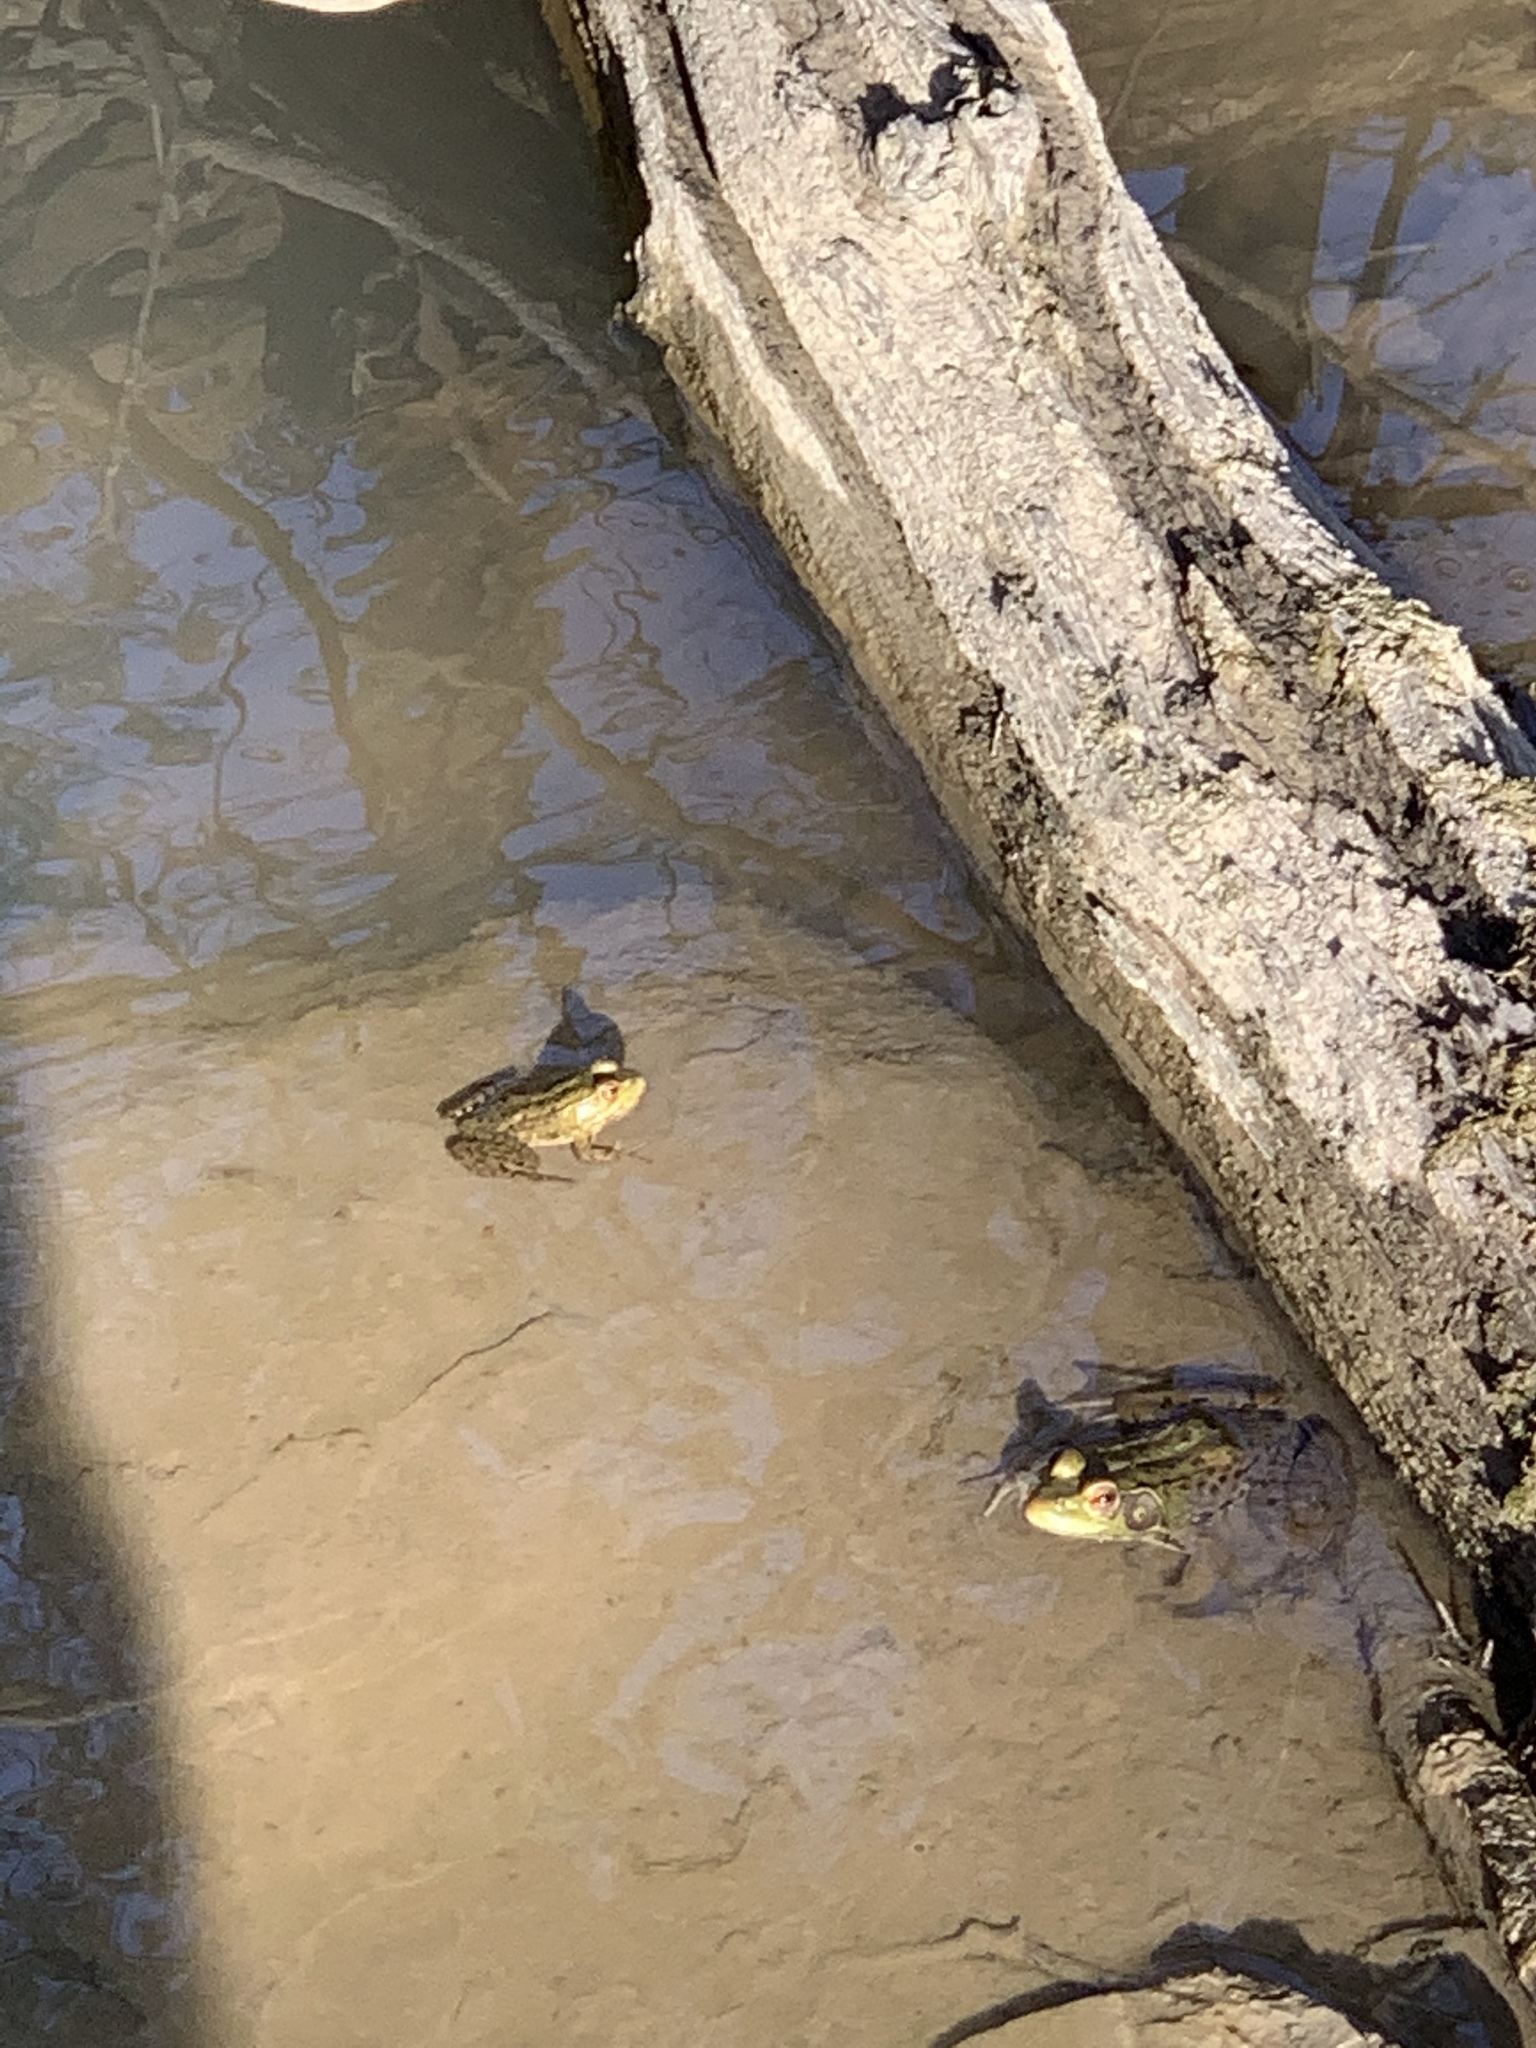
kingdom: Animalia
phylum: Chordata
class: Amphibia
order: Anura
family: Ranidae
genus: Lithobates
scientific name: Lithobates clamitans
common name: Green frog
